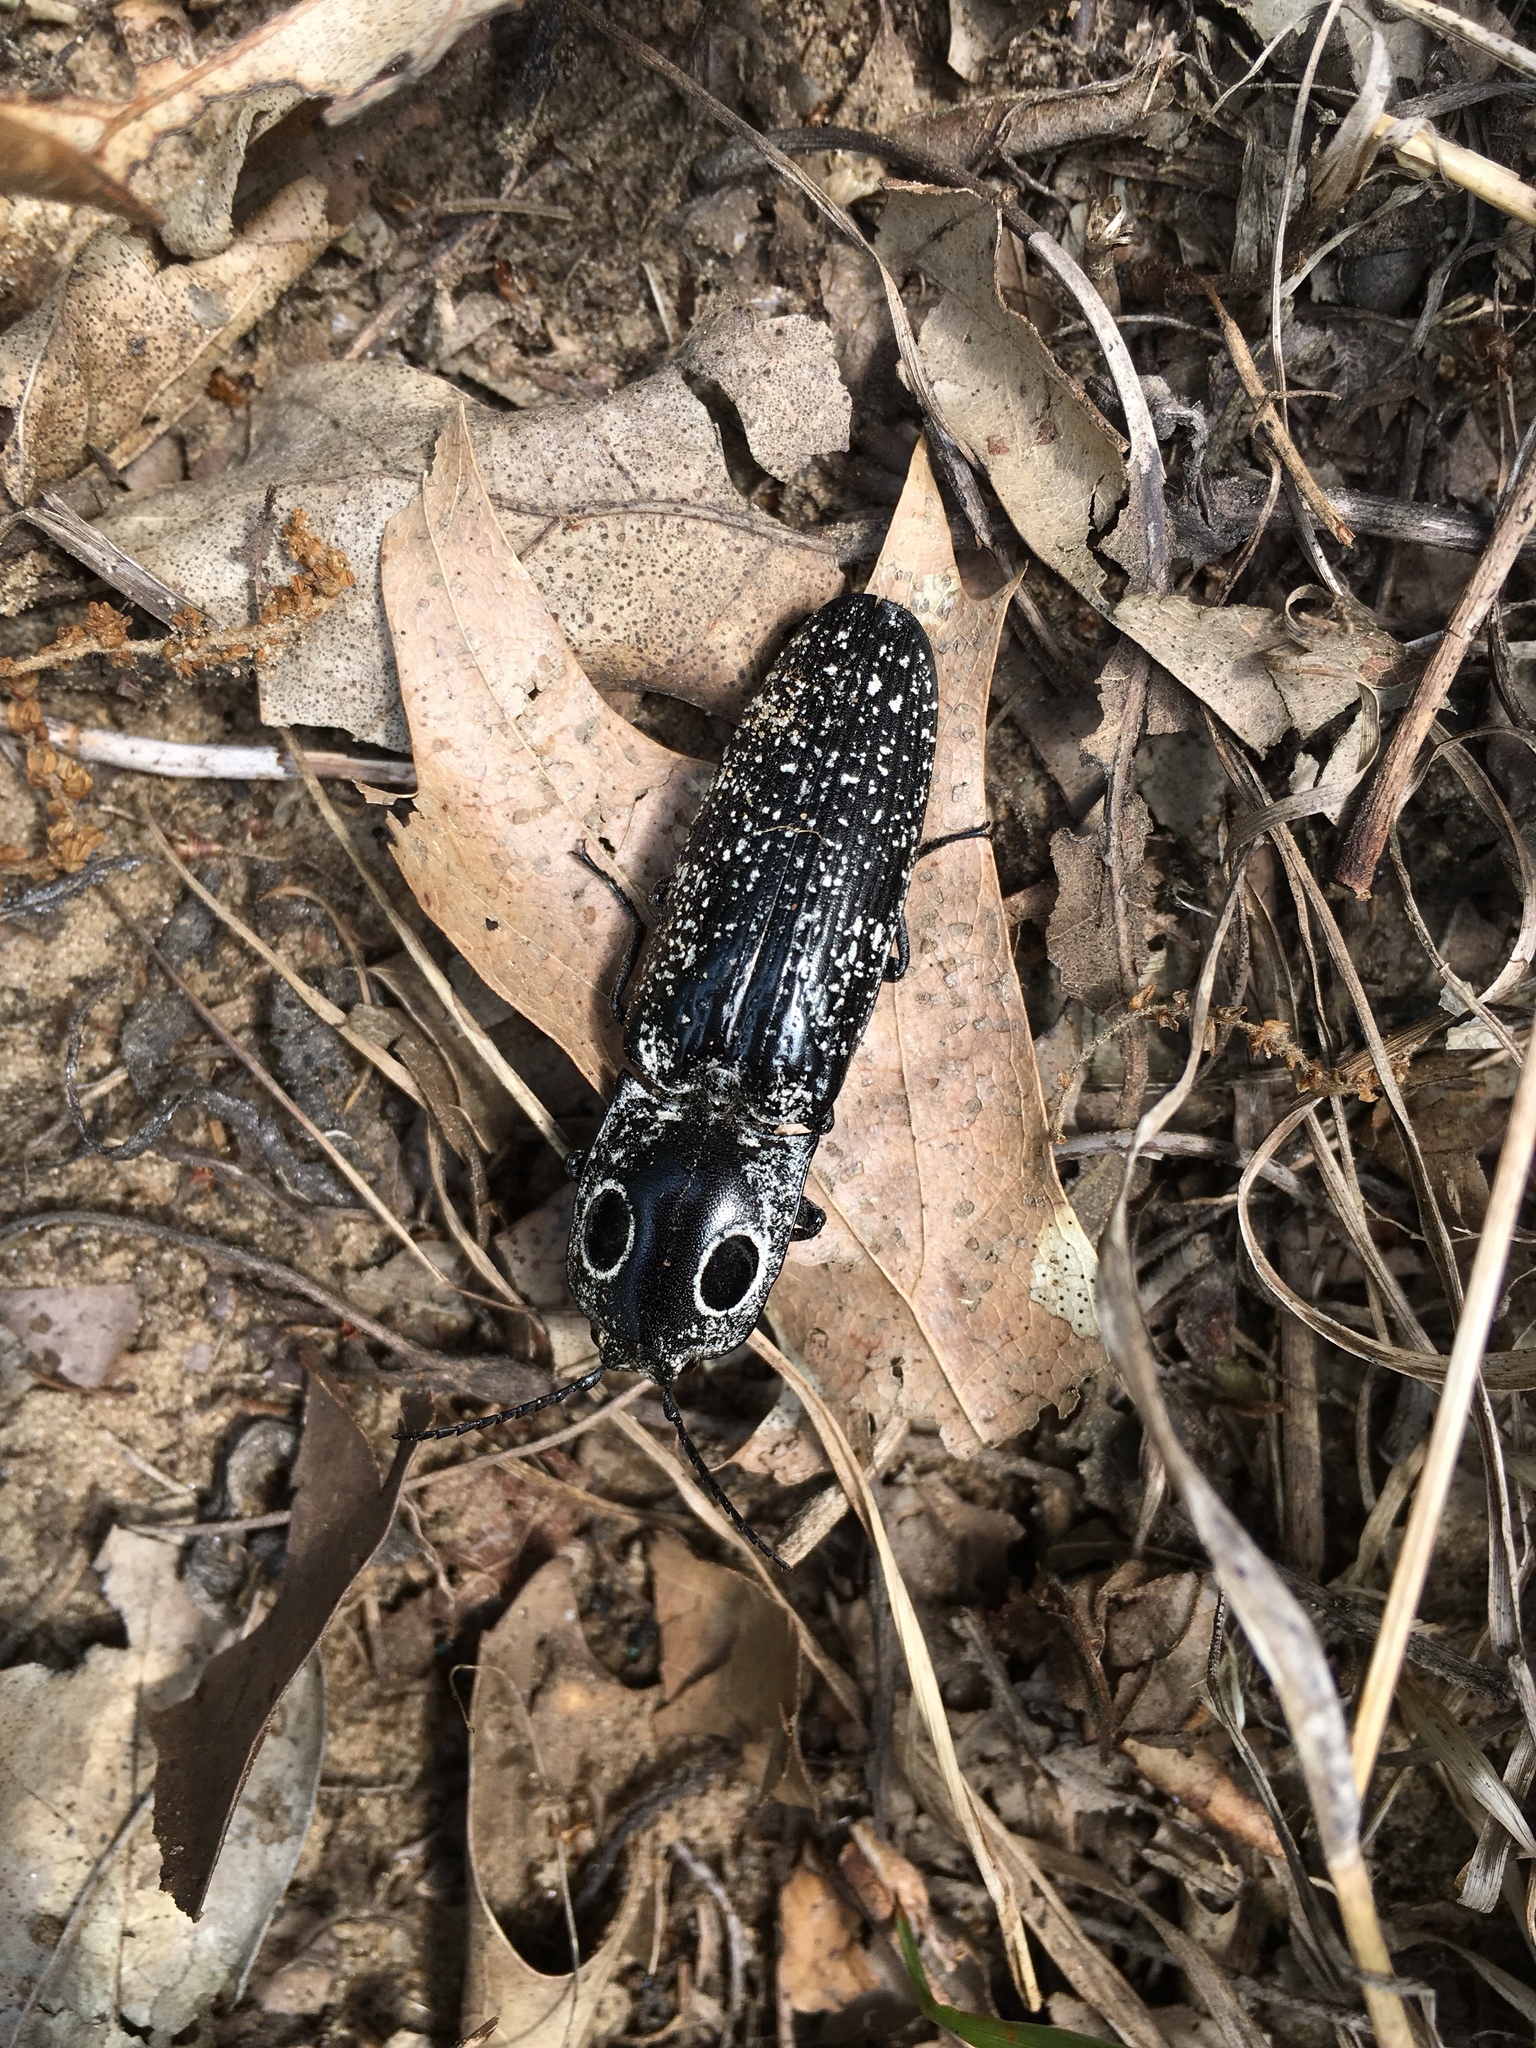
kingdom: Animalia
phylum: Arthropoda
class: Insecta
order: Coleoptera
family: Elateridae
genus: Alaus
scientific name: Alaus oculatus
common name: Eastern eyed click beetle
